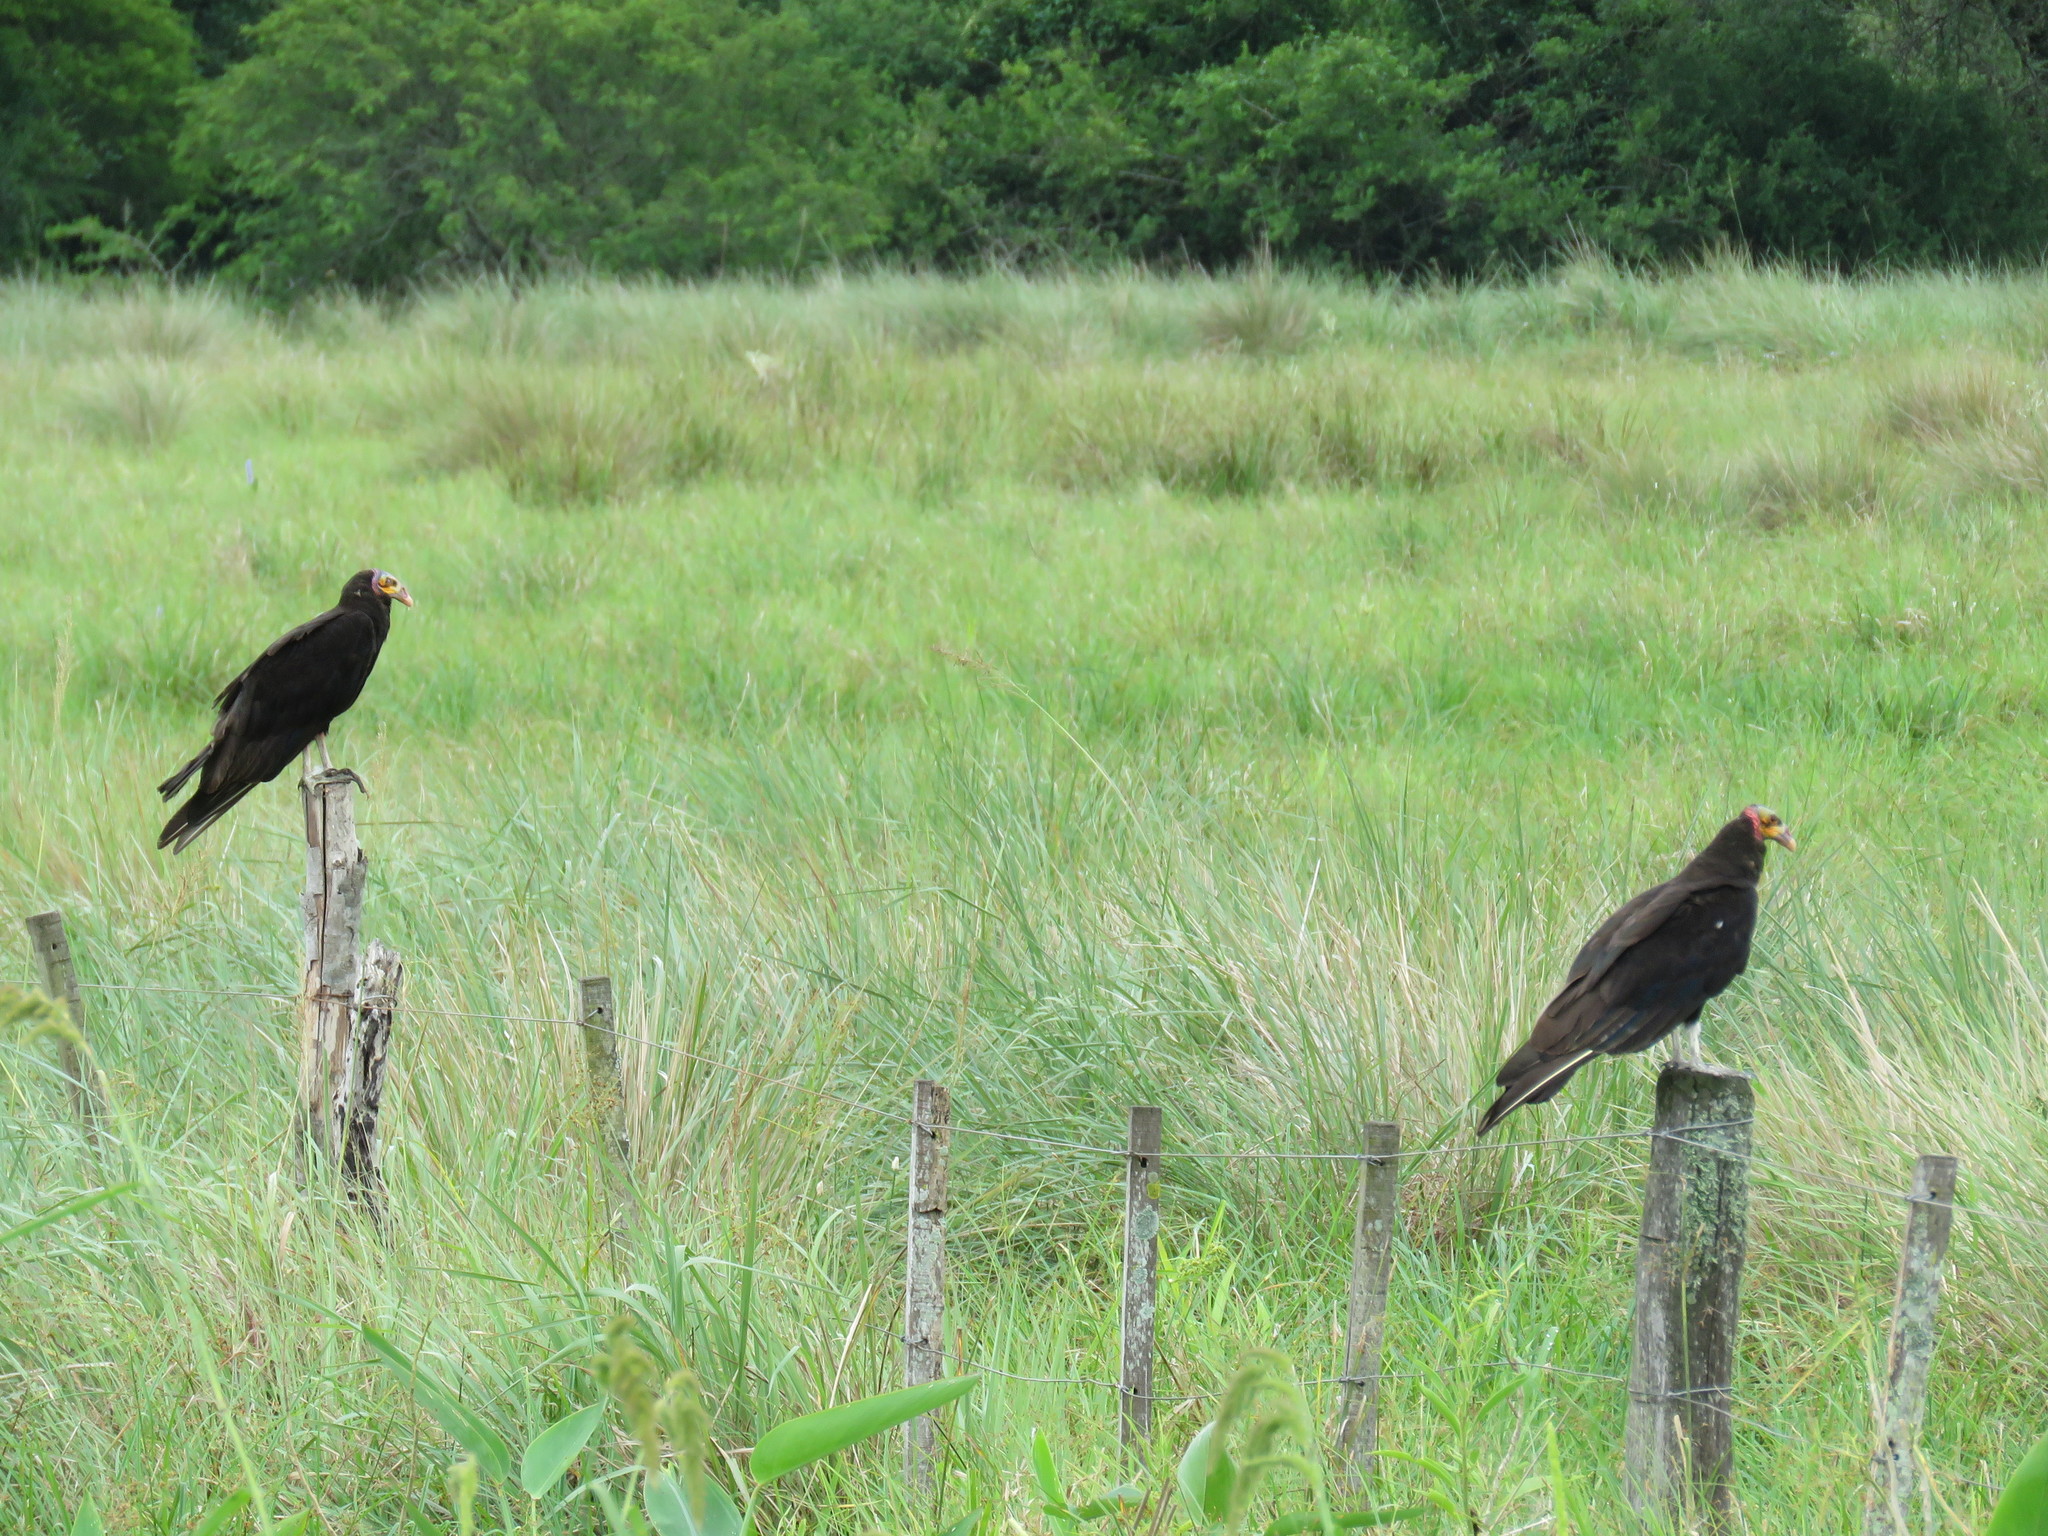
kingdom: Animalia
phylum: Chordata
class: Aves
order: Accipitriformes
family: Cathartidae
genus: Cathartes
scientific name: Cathartes burrovianus
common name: Lesser yellow-headed vulture
